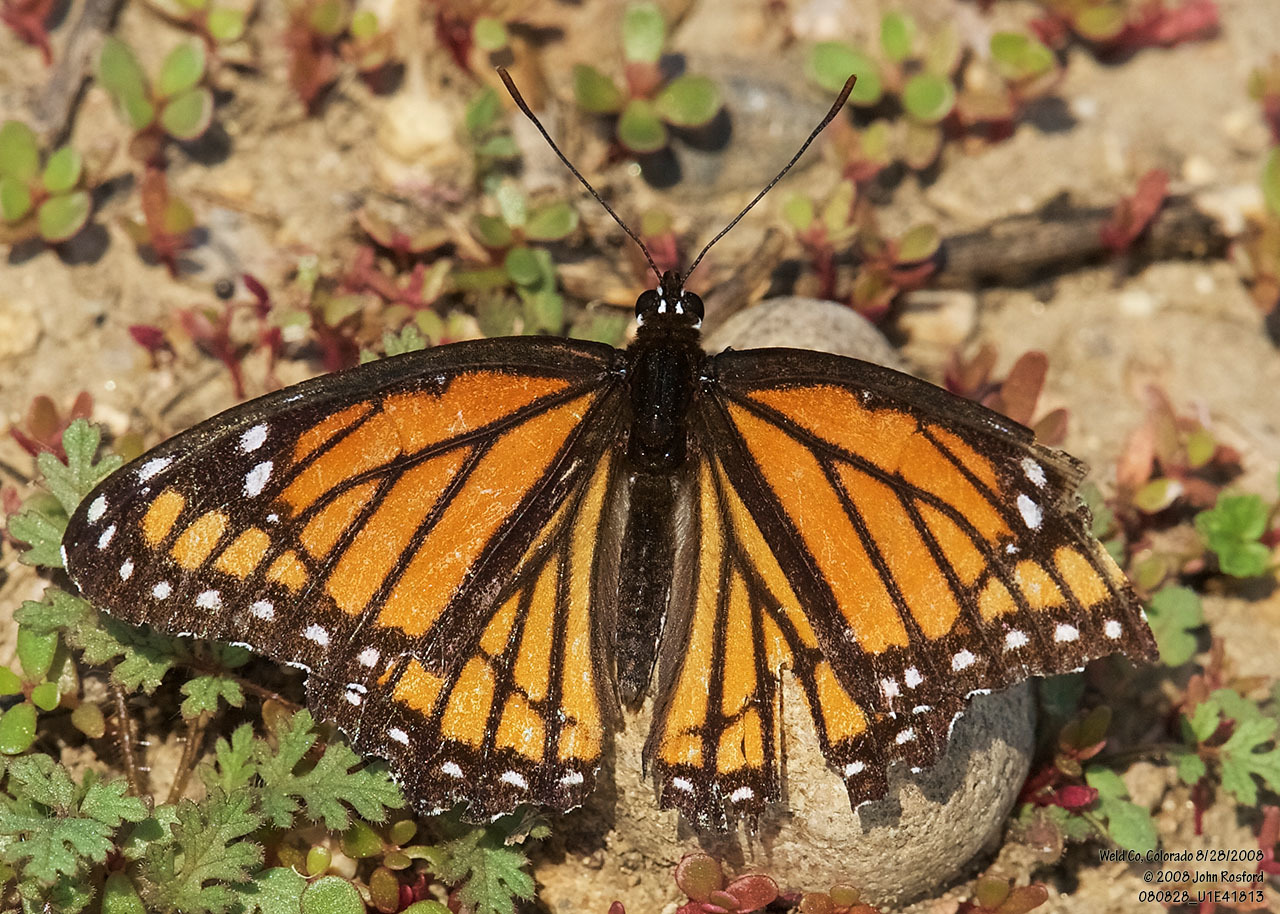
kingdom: Animalia
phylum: Arthropoda
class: Insecta
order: Lepidoptera
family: Nymphalidae
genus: Limenitis
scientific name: Limenitis archippus
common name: Viceroy
